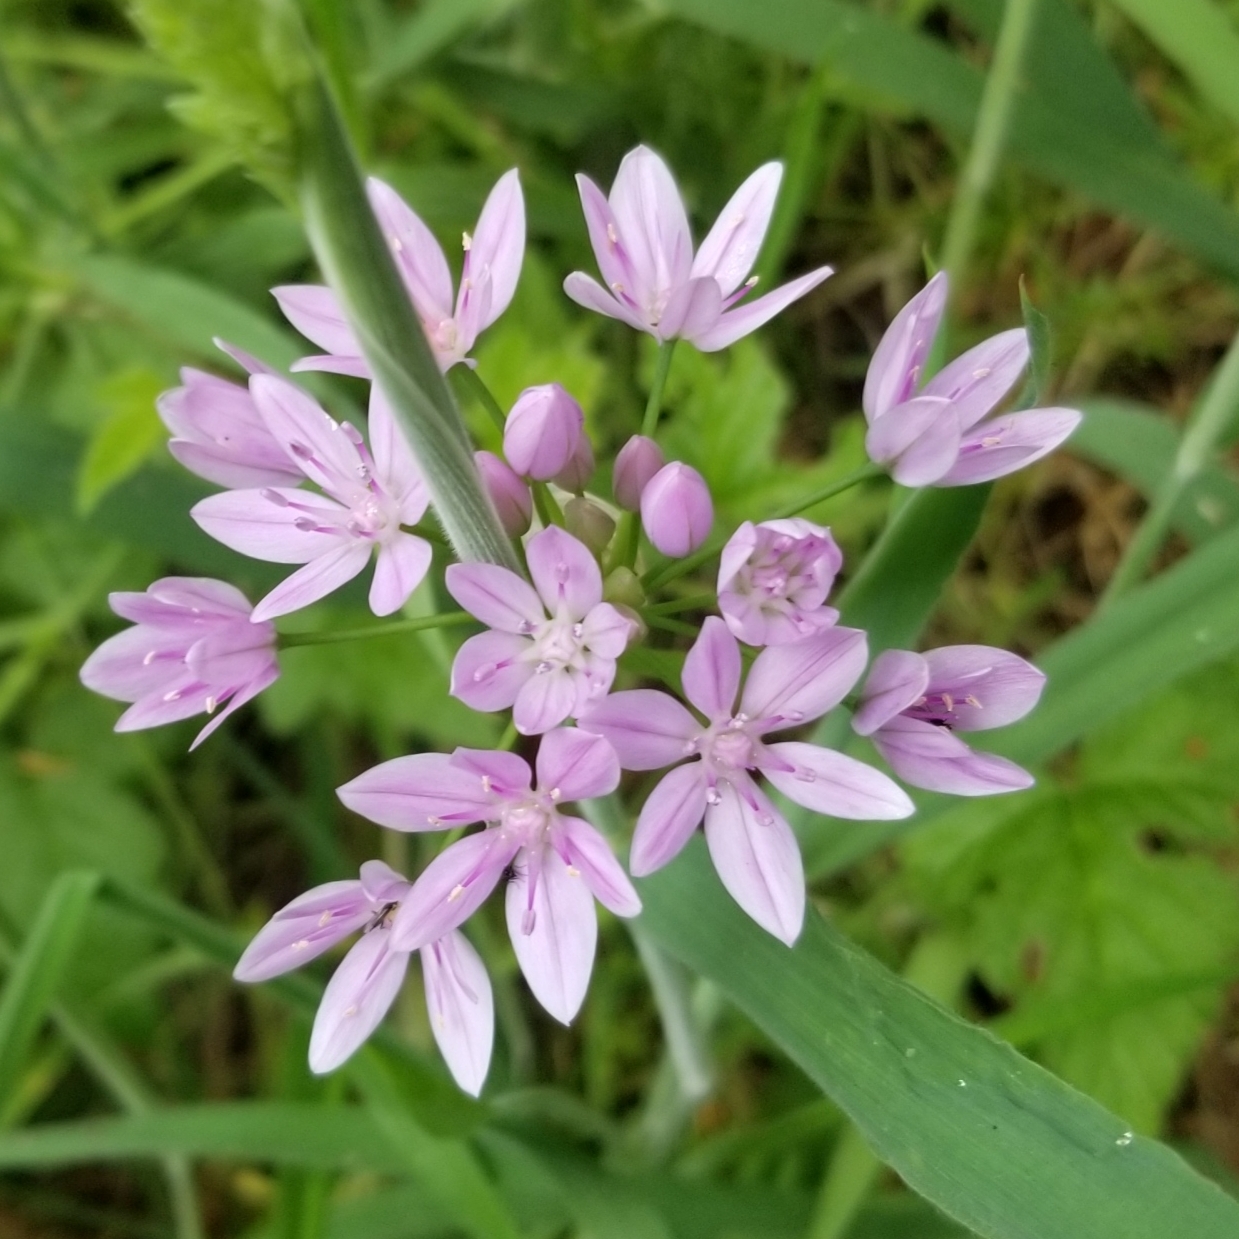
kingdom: Plantae
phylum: Tracheophyta
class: Liliopsida
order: Asparagales
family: Amaryllidaceae
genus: Allium
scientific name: Allium unifolium
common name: American garlic
